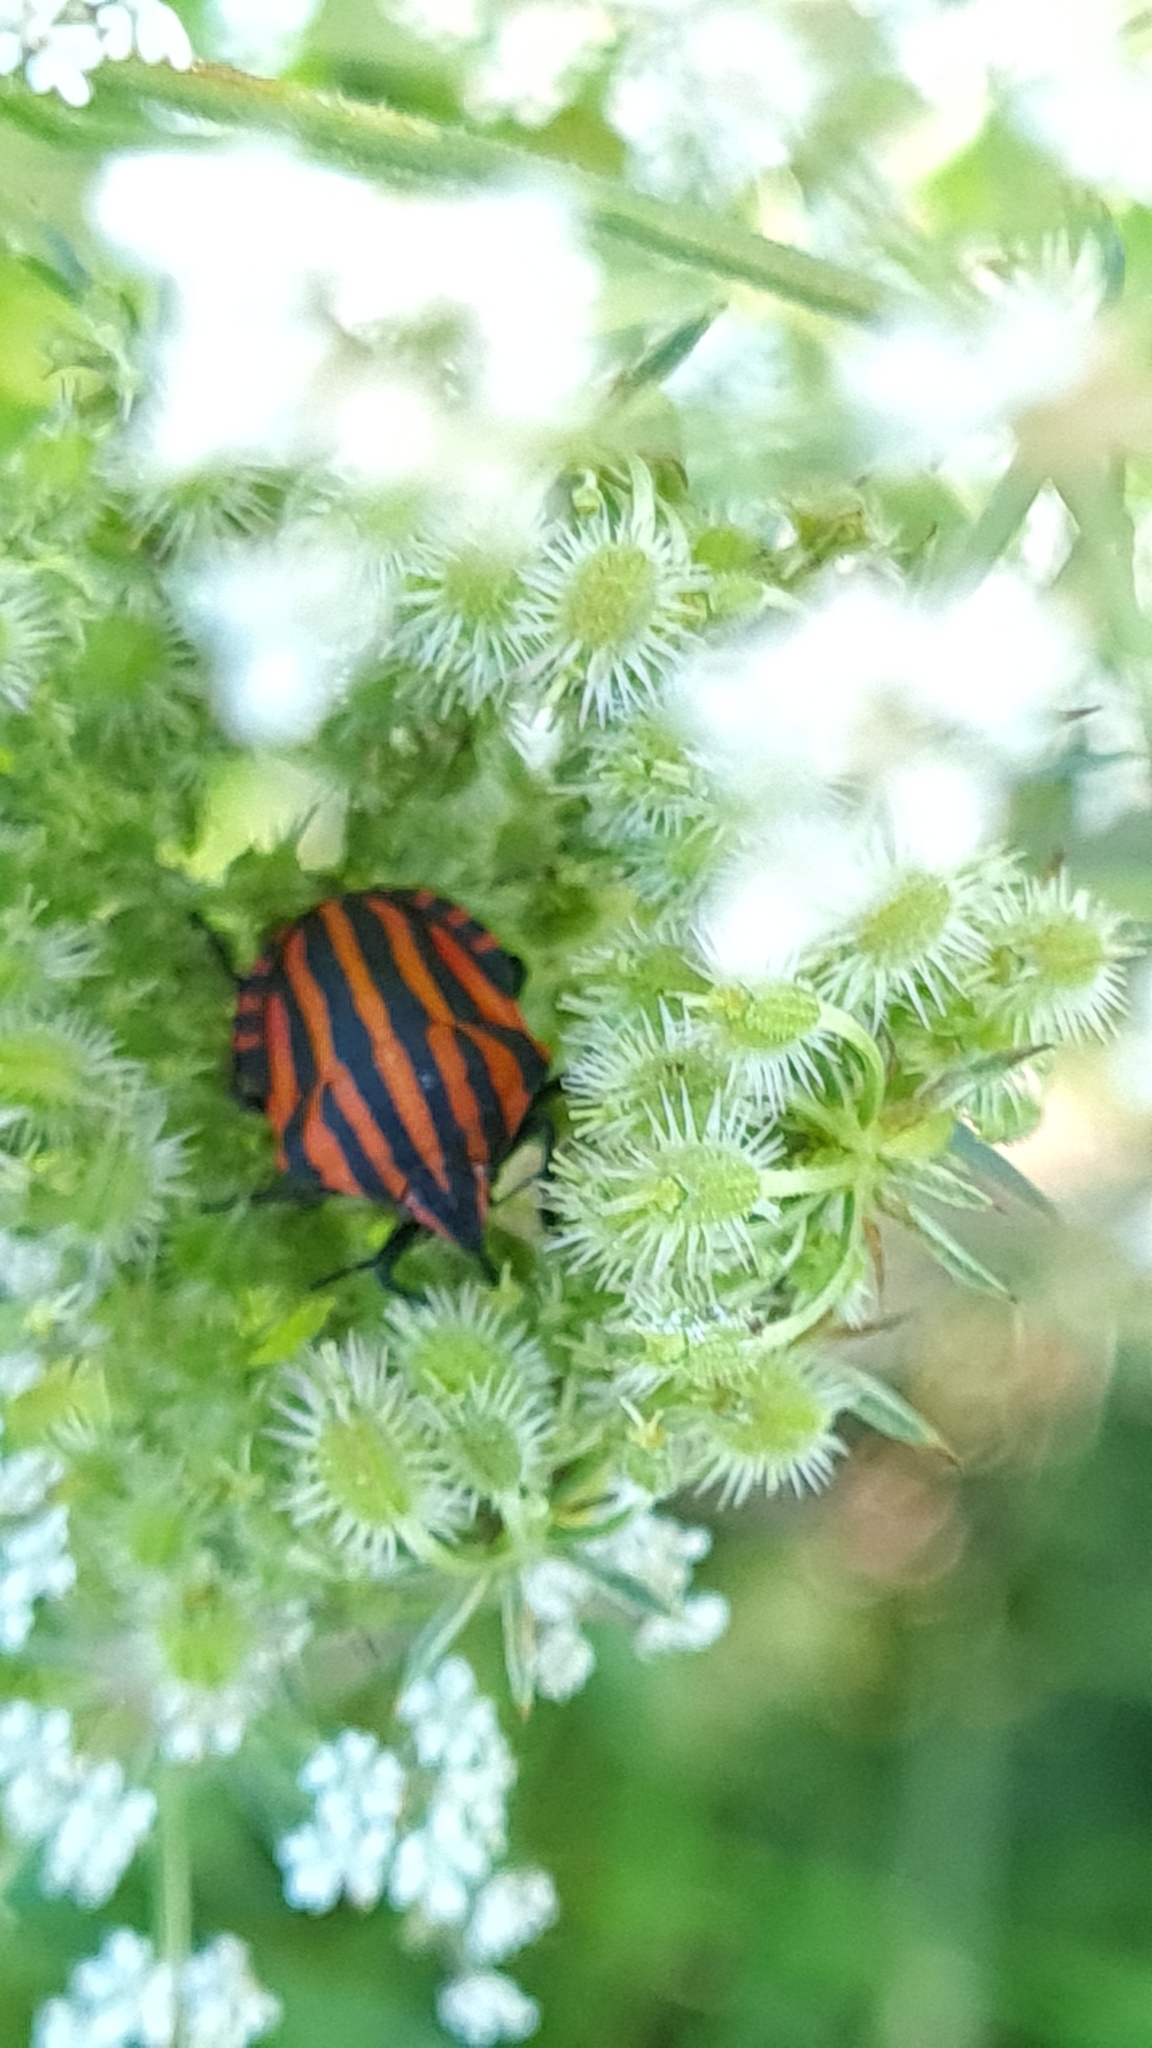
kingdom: Animalia
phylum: Arthropoda
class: Insecta
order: Hemiptera
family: Pentatomidae
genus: Graphosoma
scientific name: Graphosoma italicum
